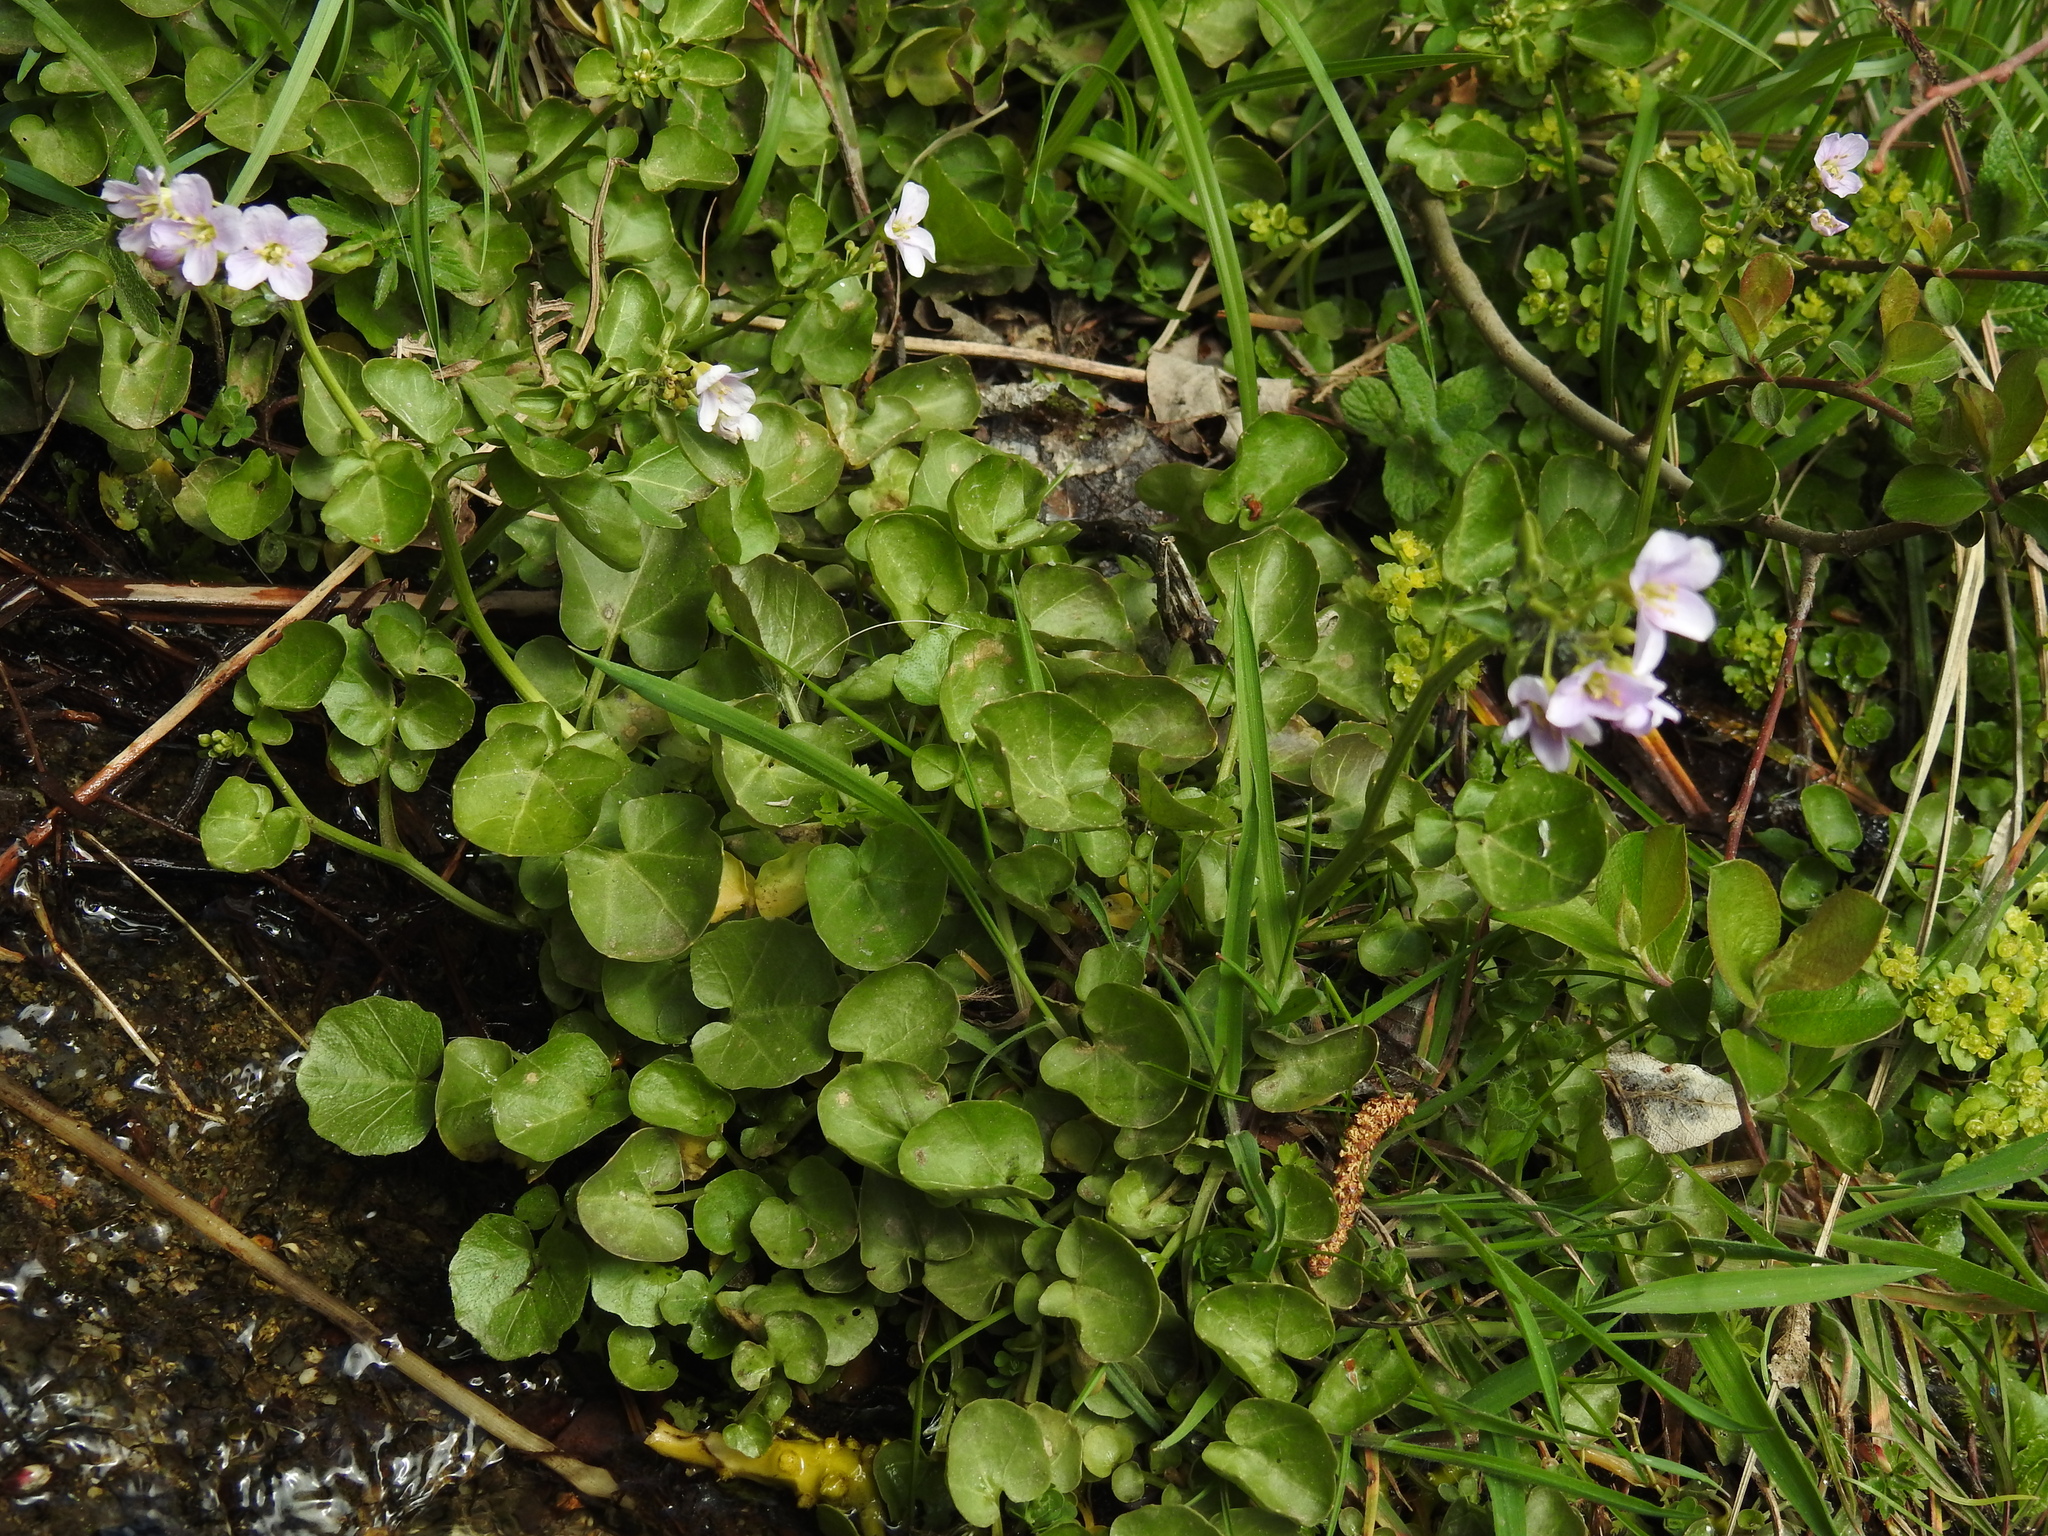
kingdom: Plantae
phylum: Tracheophyta
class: Magnoliopsida
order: Brassicales
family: Brassicaceae
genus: Cardamine
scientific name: Cardamine raphanifolia
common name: Greater cuckooflower
